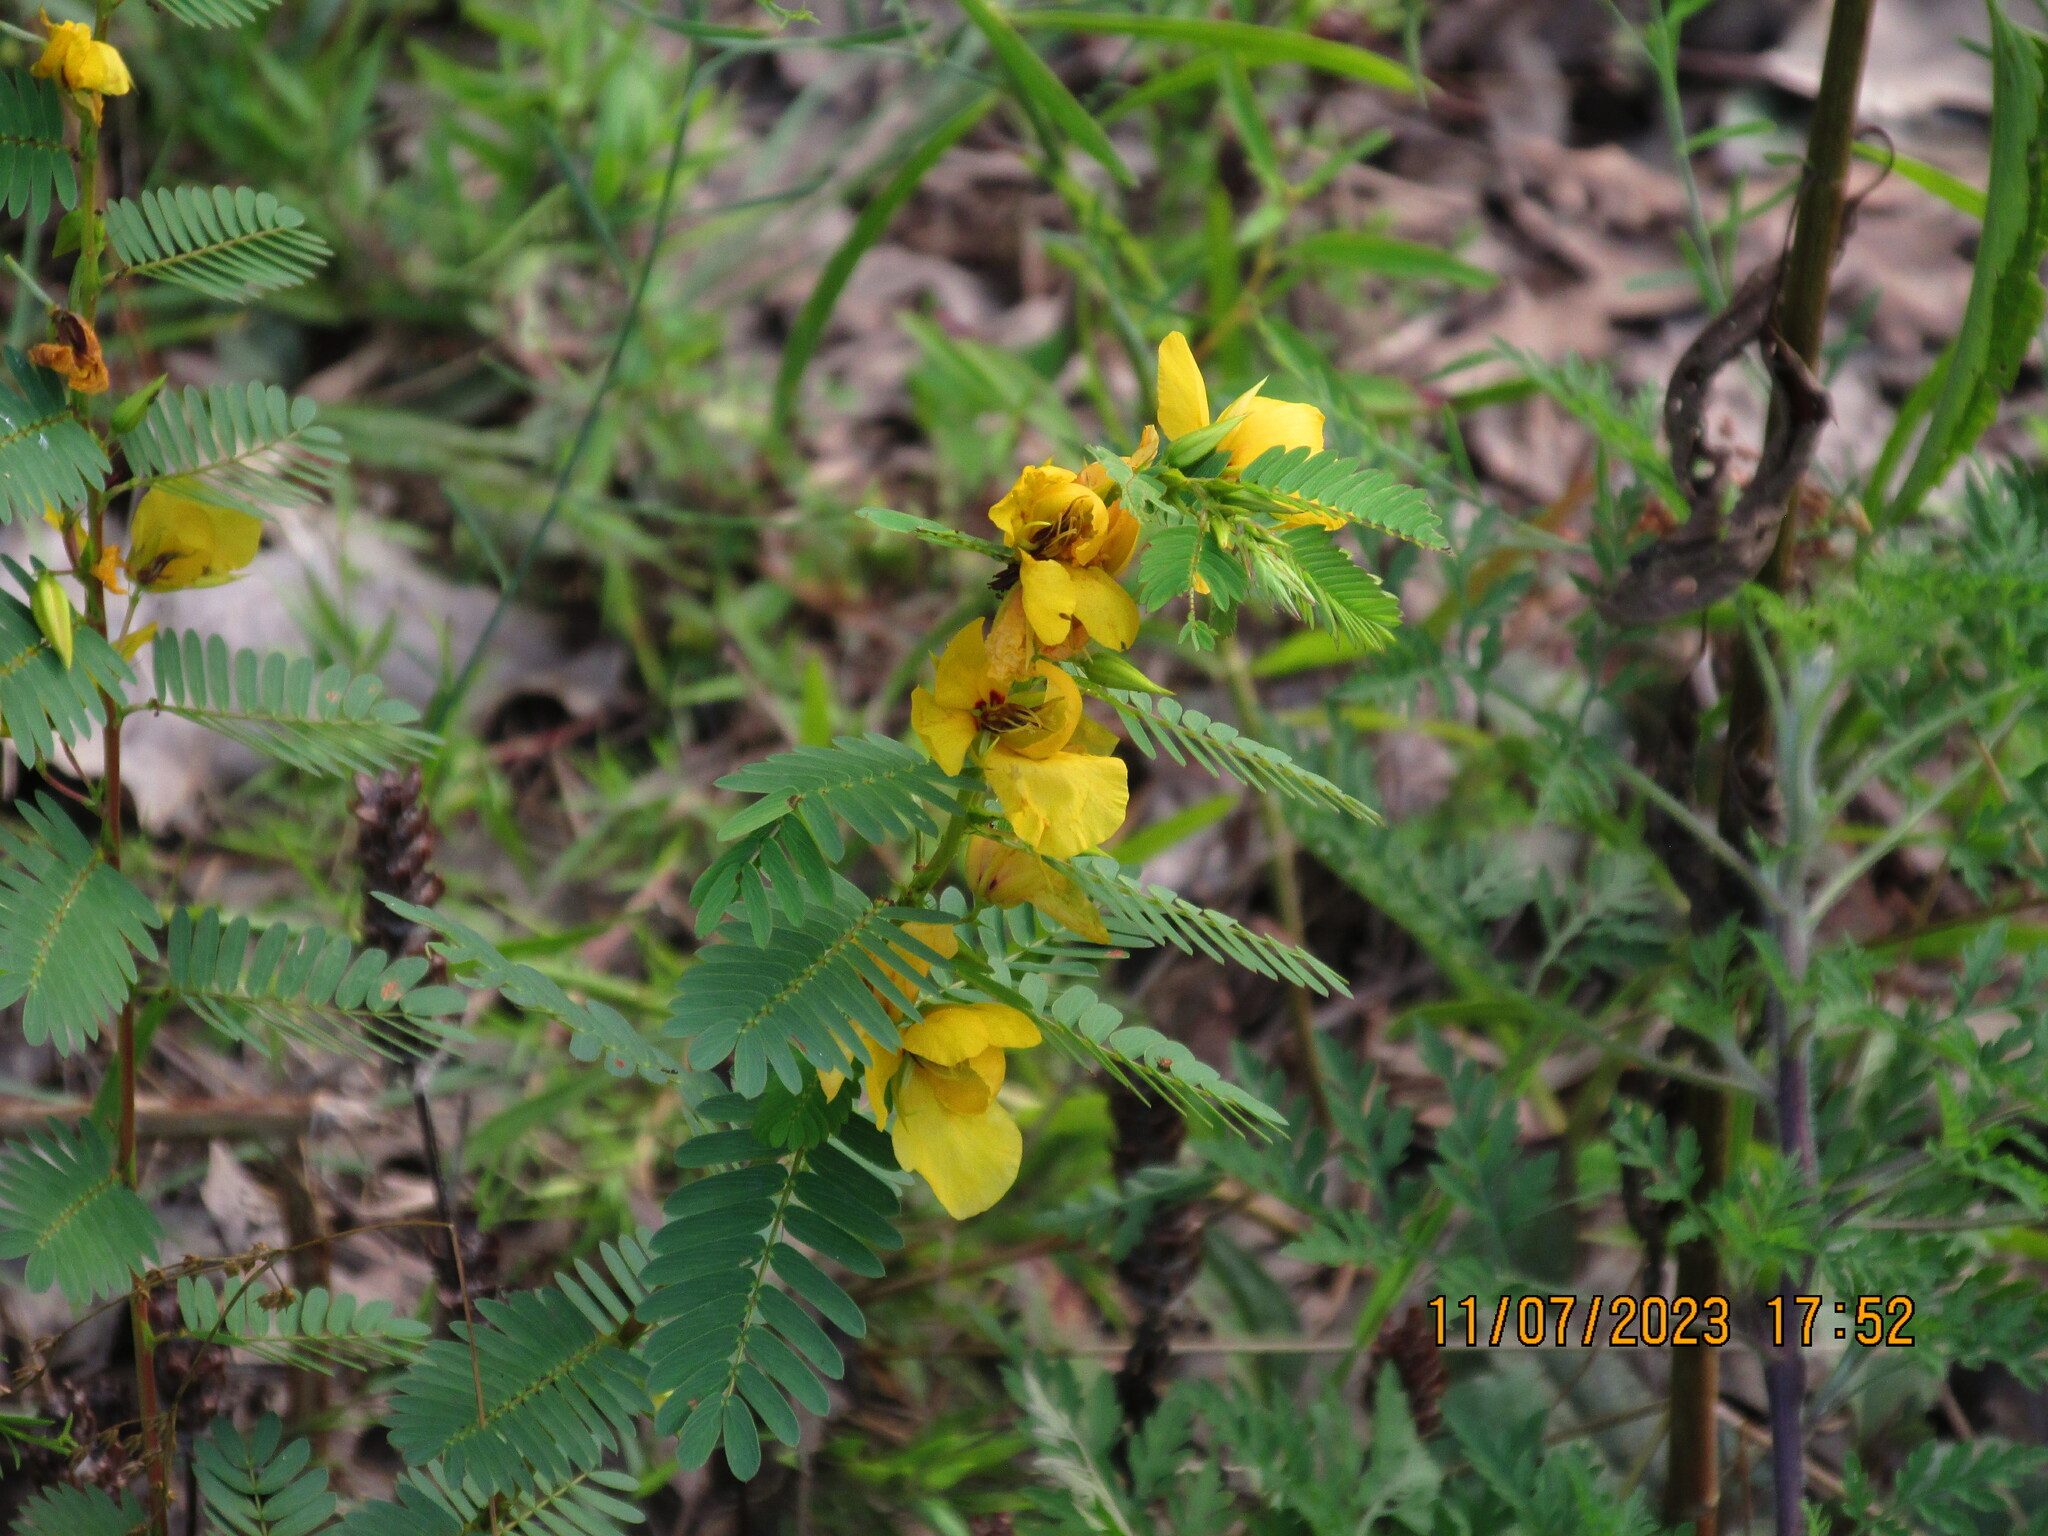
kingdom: Plantae
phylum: Tracheophyta
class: Magnoliopsida
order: Fabales
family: Fabaceae
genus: Chamaecrista
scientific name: Chamaecrista fasciculata
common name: Golden cassia
